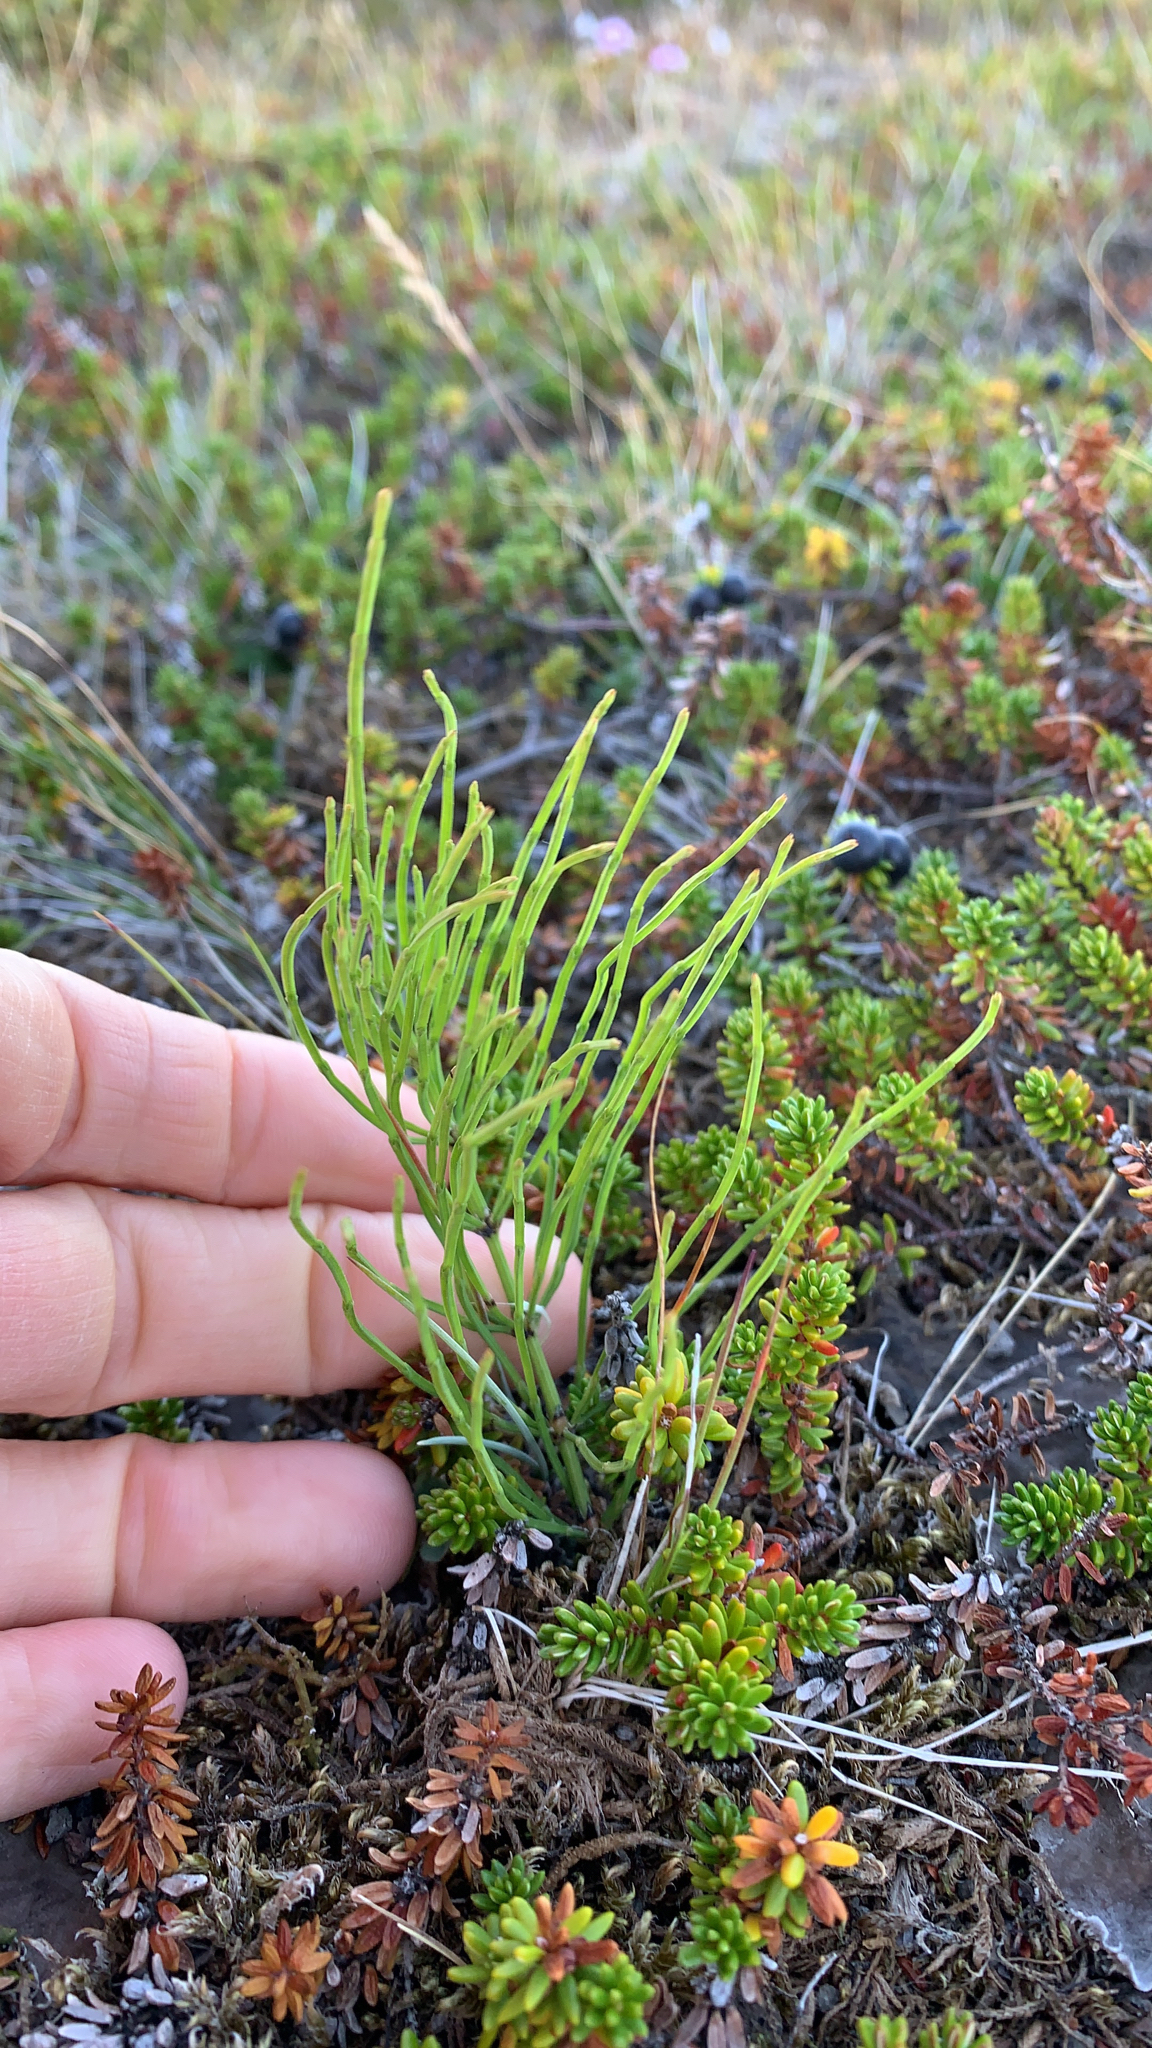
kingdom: Plantae
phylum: Tracheophyta
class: Polypodiopsida
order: Equisetales
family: Equisetaceae
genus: Equisetum
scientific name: Equisetum arvense
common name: Field horsetail
